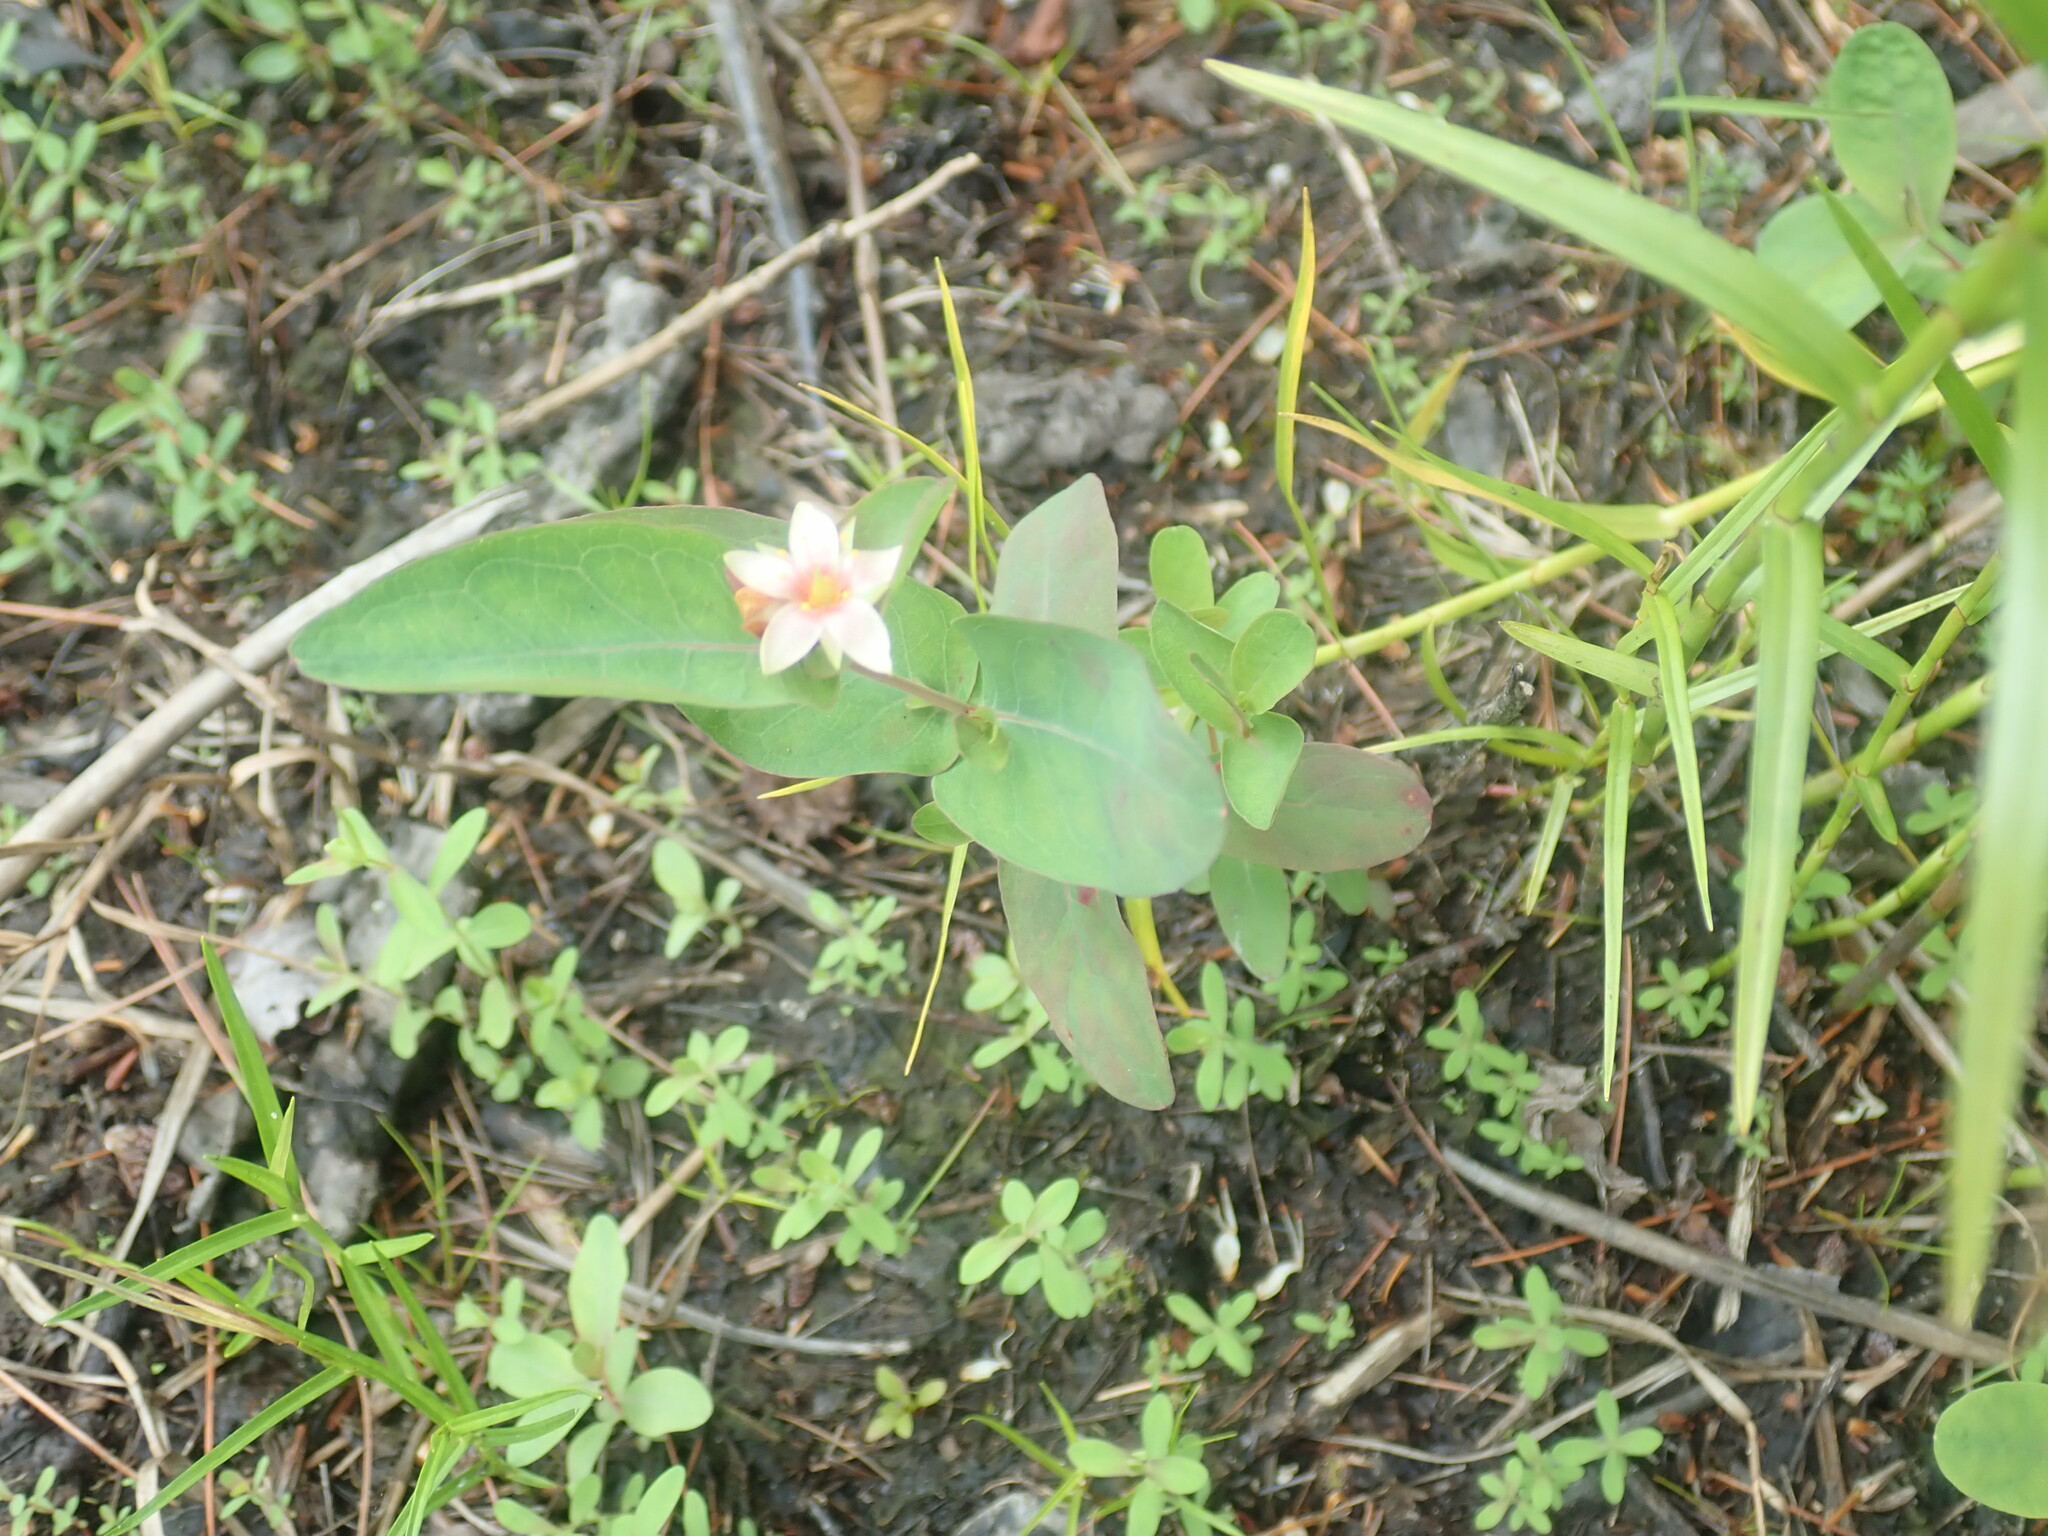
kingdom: Plantae
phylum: Tracheophyta
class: Magnoliopsida
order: Malpighiales
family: Hypericaceae
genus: Triadenum
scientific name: Triadenum virginicum
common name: Marsh st. john's-wort
